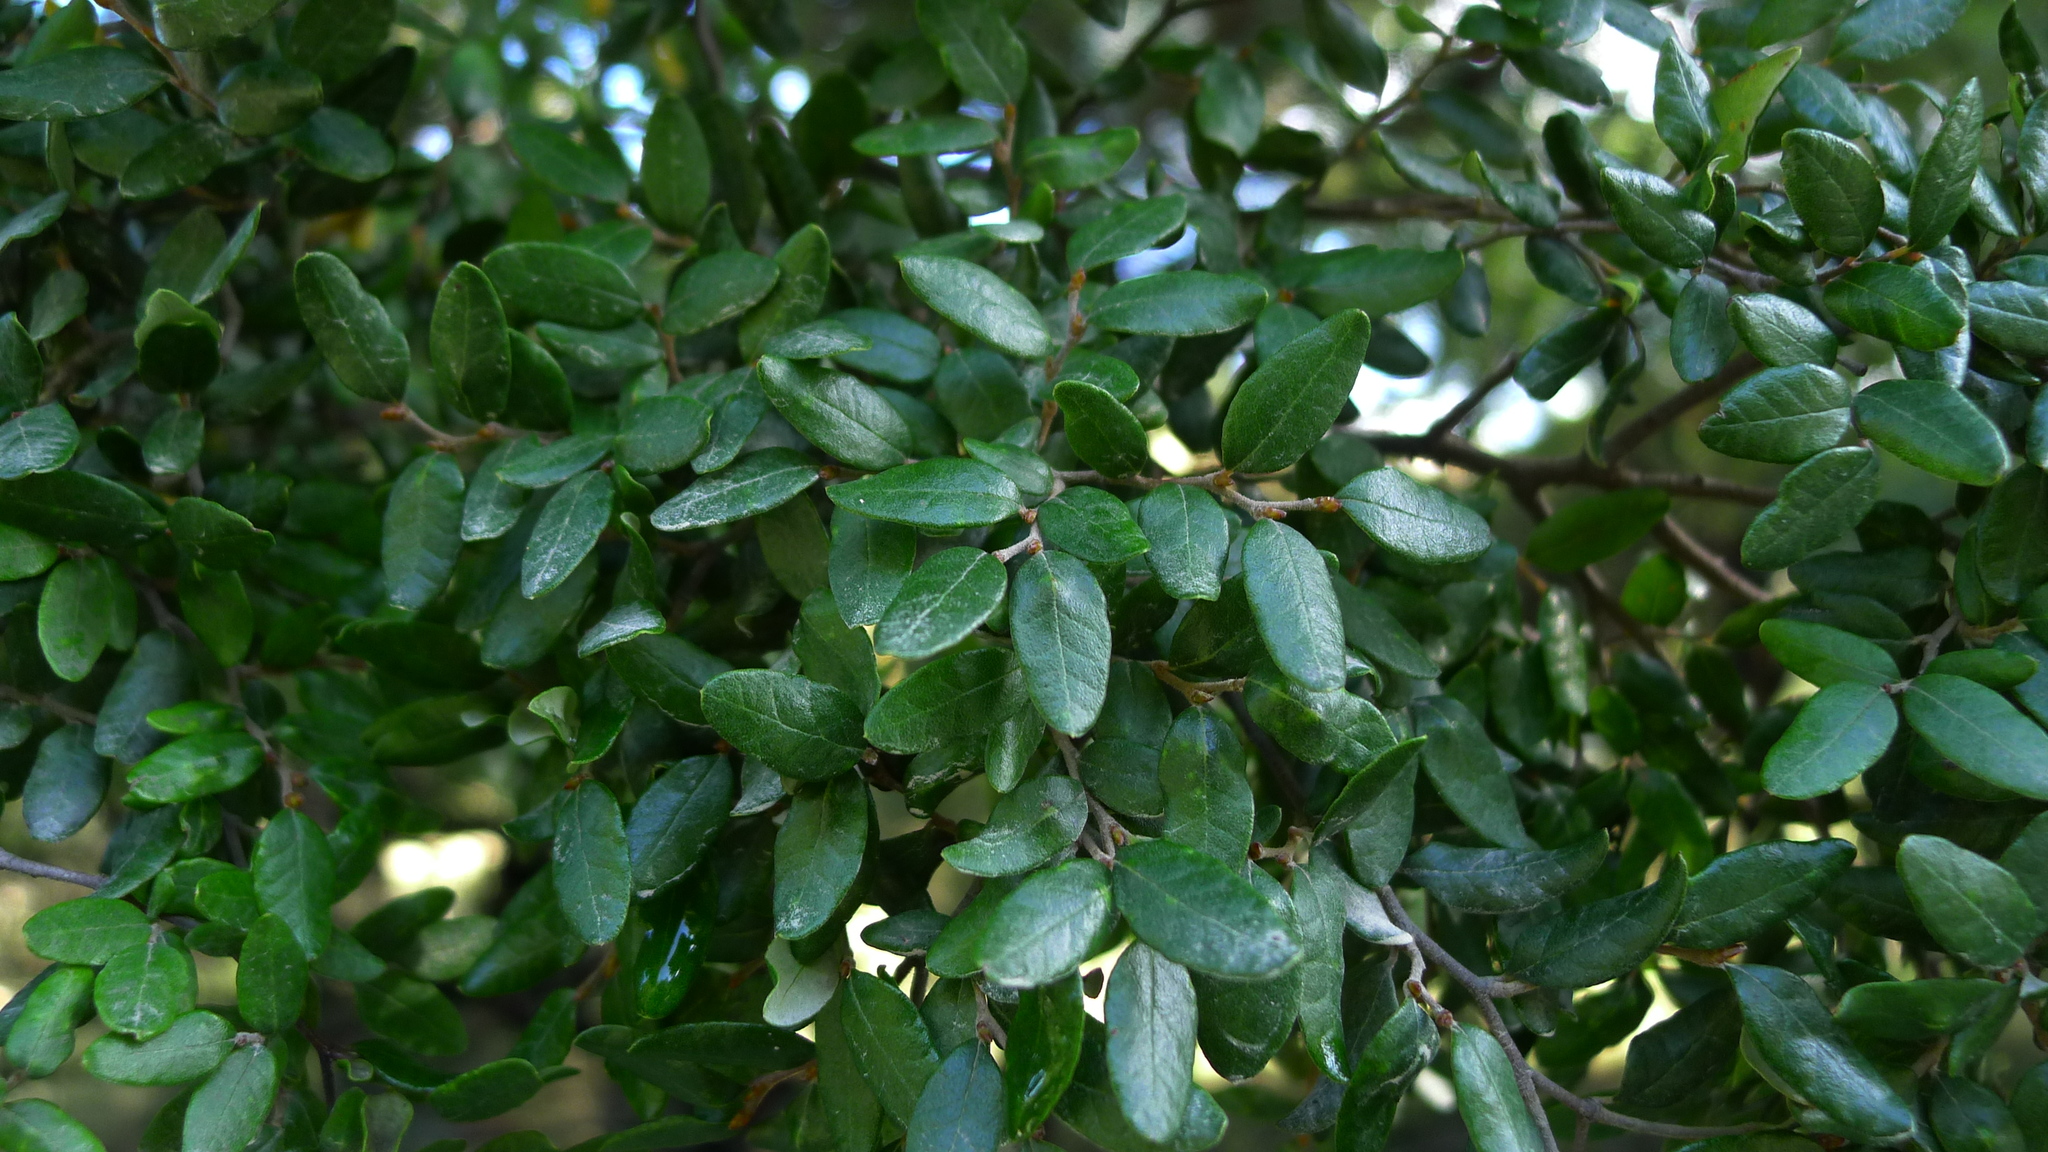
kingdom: Plantae
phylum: Tracheophyta
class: Magnoliopsida
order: Fagales
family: Nothofagaceae
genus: Nothofagus
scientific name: Nothofagus solandri
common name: Black beech
